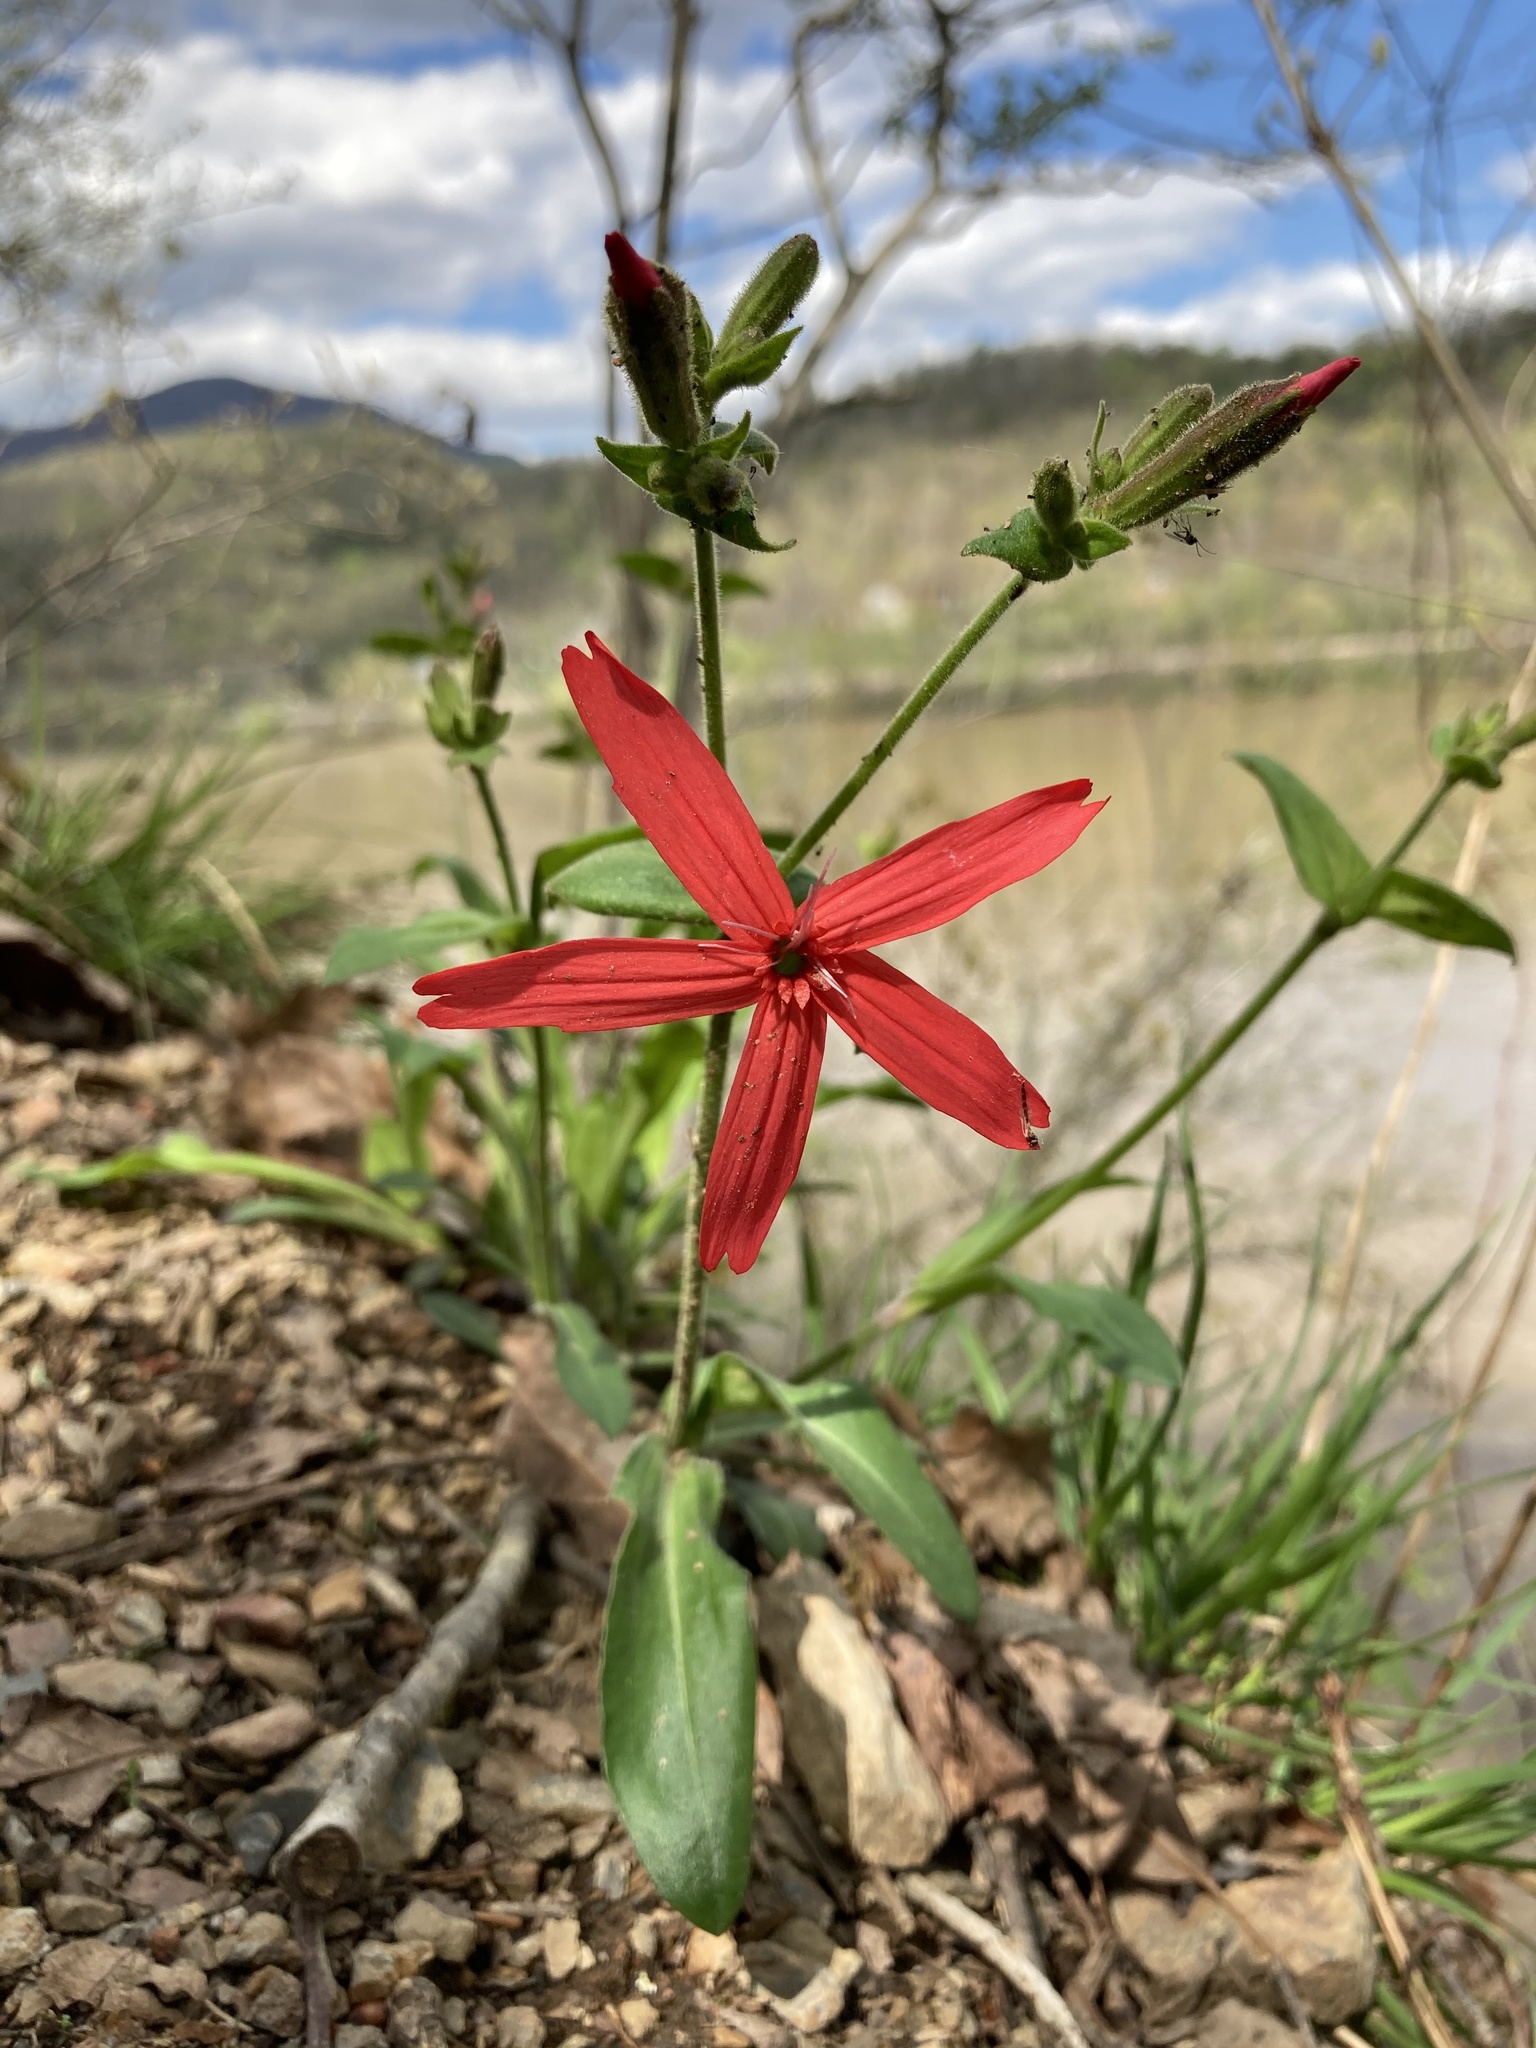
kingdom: Plantae
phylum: Tracheophyta
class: Magnoliopsida
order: Caryophyllales
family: Caryophyllaceae
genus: Silene
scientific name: Silene virginica
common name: Fire-pink
